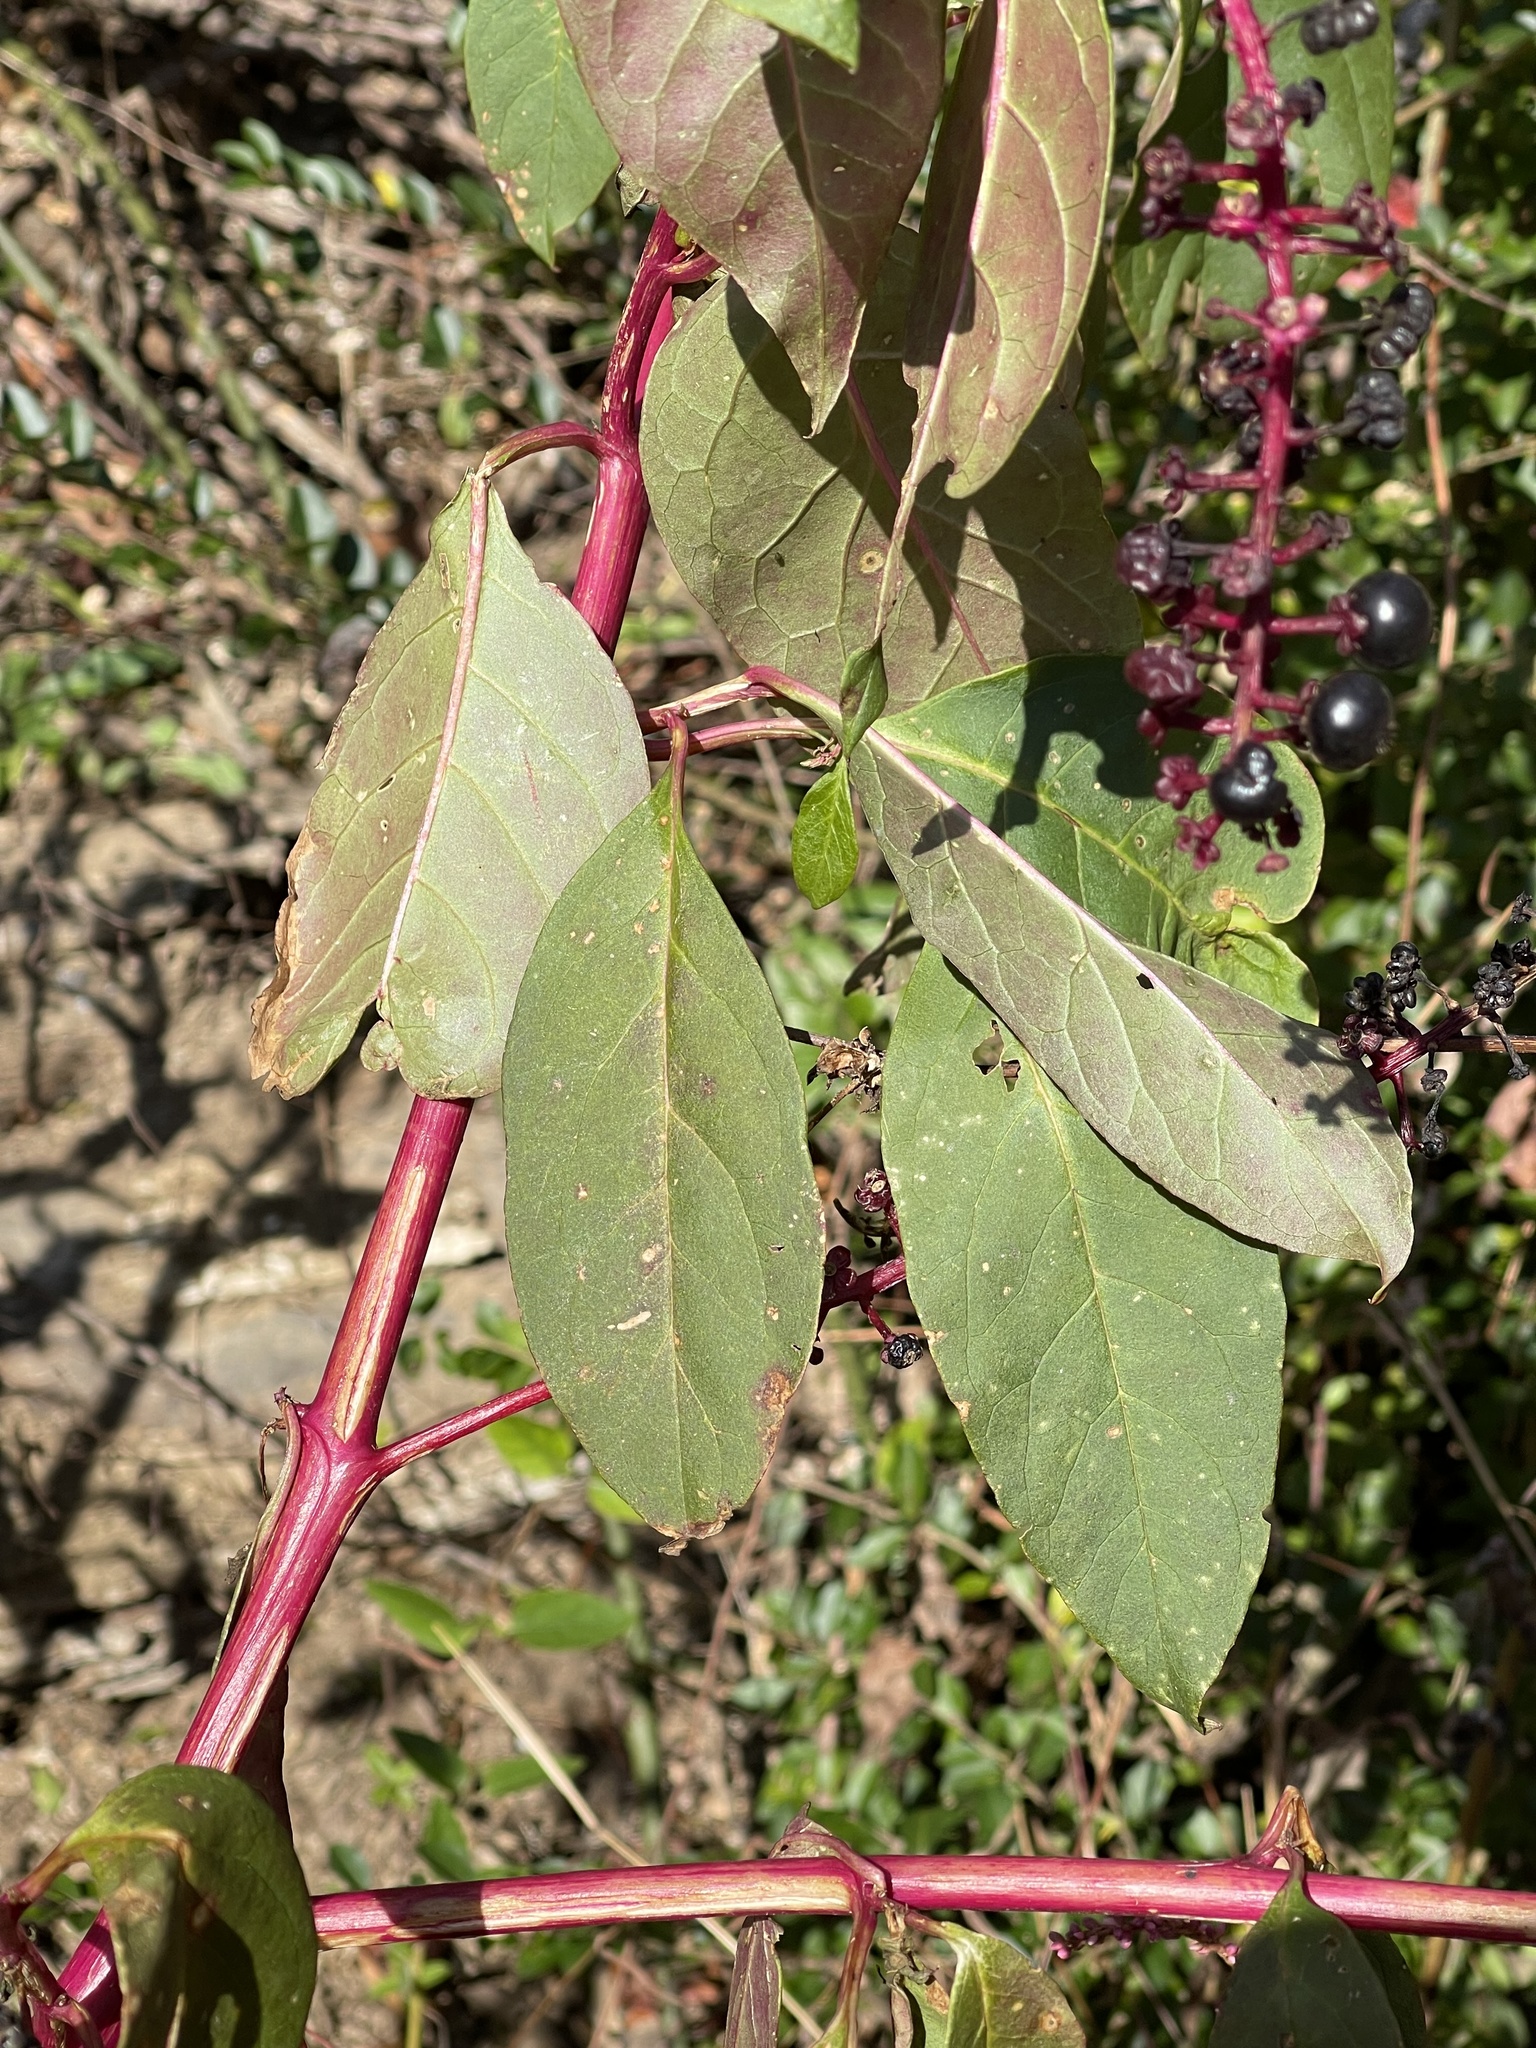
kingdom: Plantae
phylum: Tracheophyta
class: Magnoliopsida
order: Caryophyllales
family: Phytolaccaceae
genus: Phytolacca
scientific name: Phytolacca americana
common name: American pokeweed
